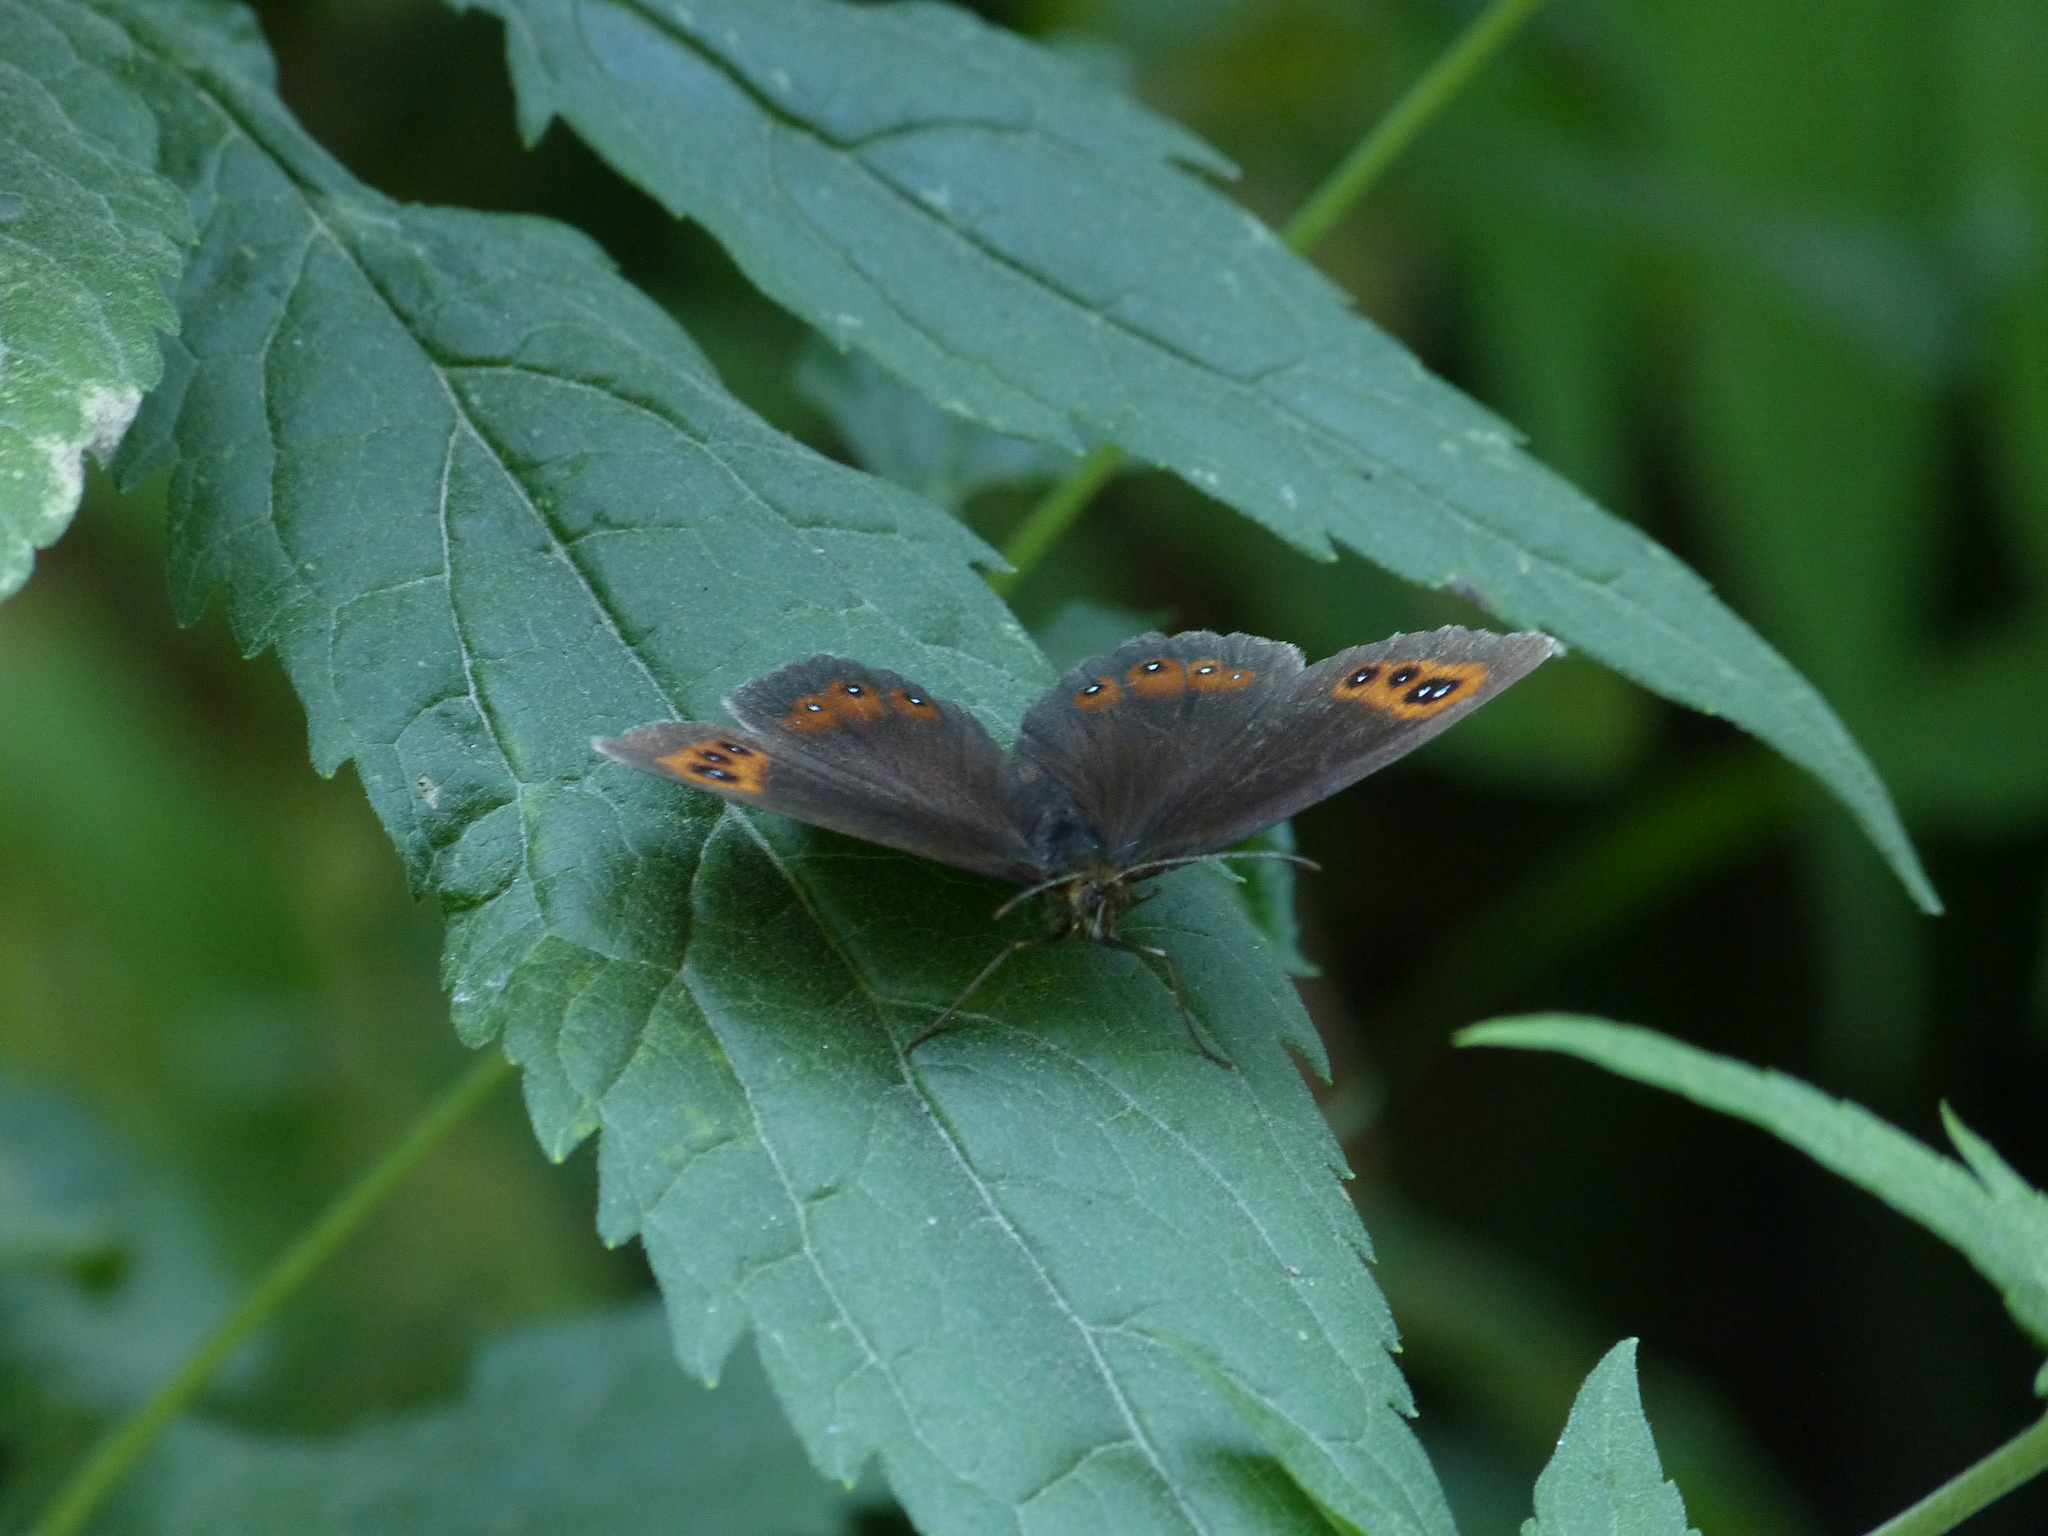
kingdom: Animalia
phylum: Arthropoda
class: Insecta
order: Lepidoptera
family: Nymphalidae
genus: Erebia
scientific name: Erebia aethiops
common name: Scotch argus
